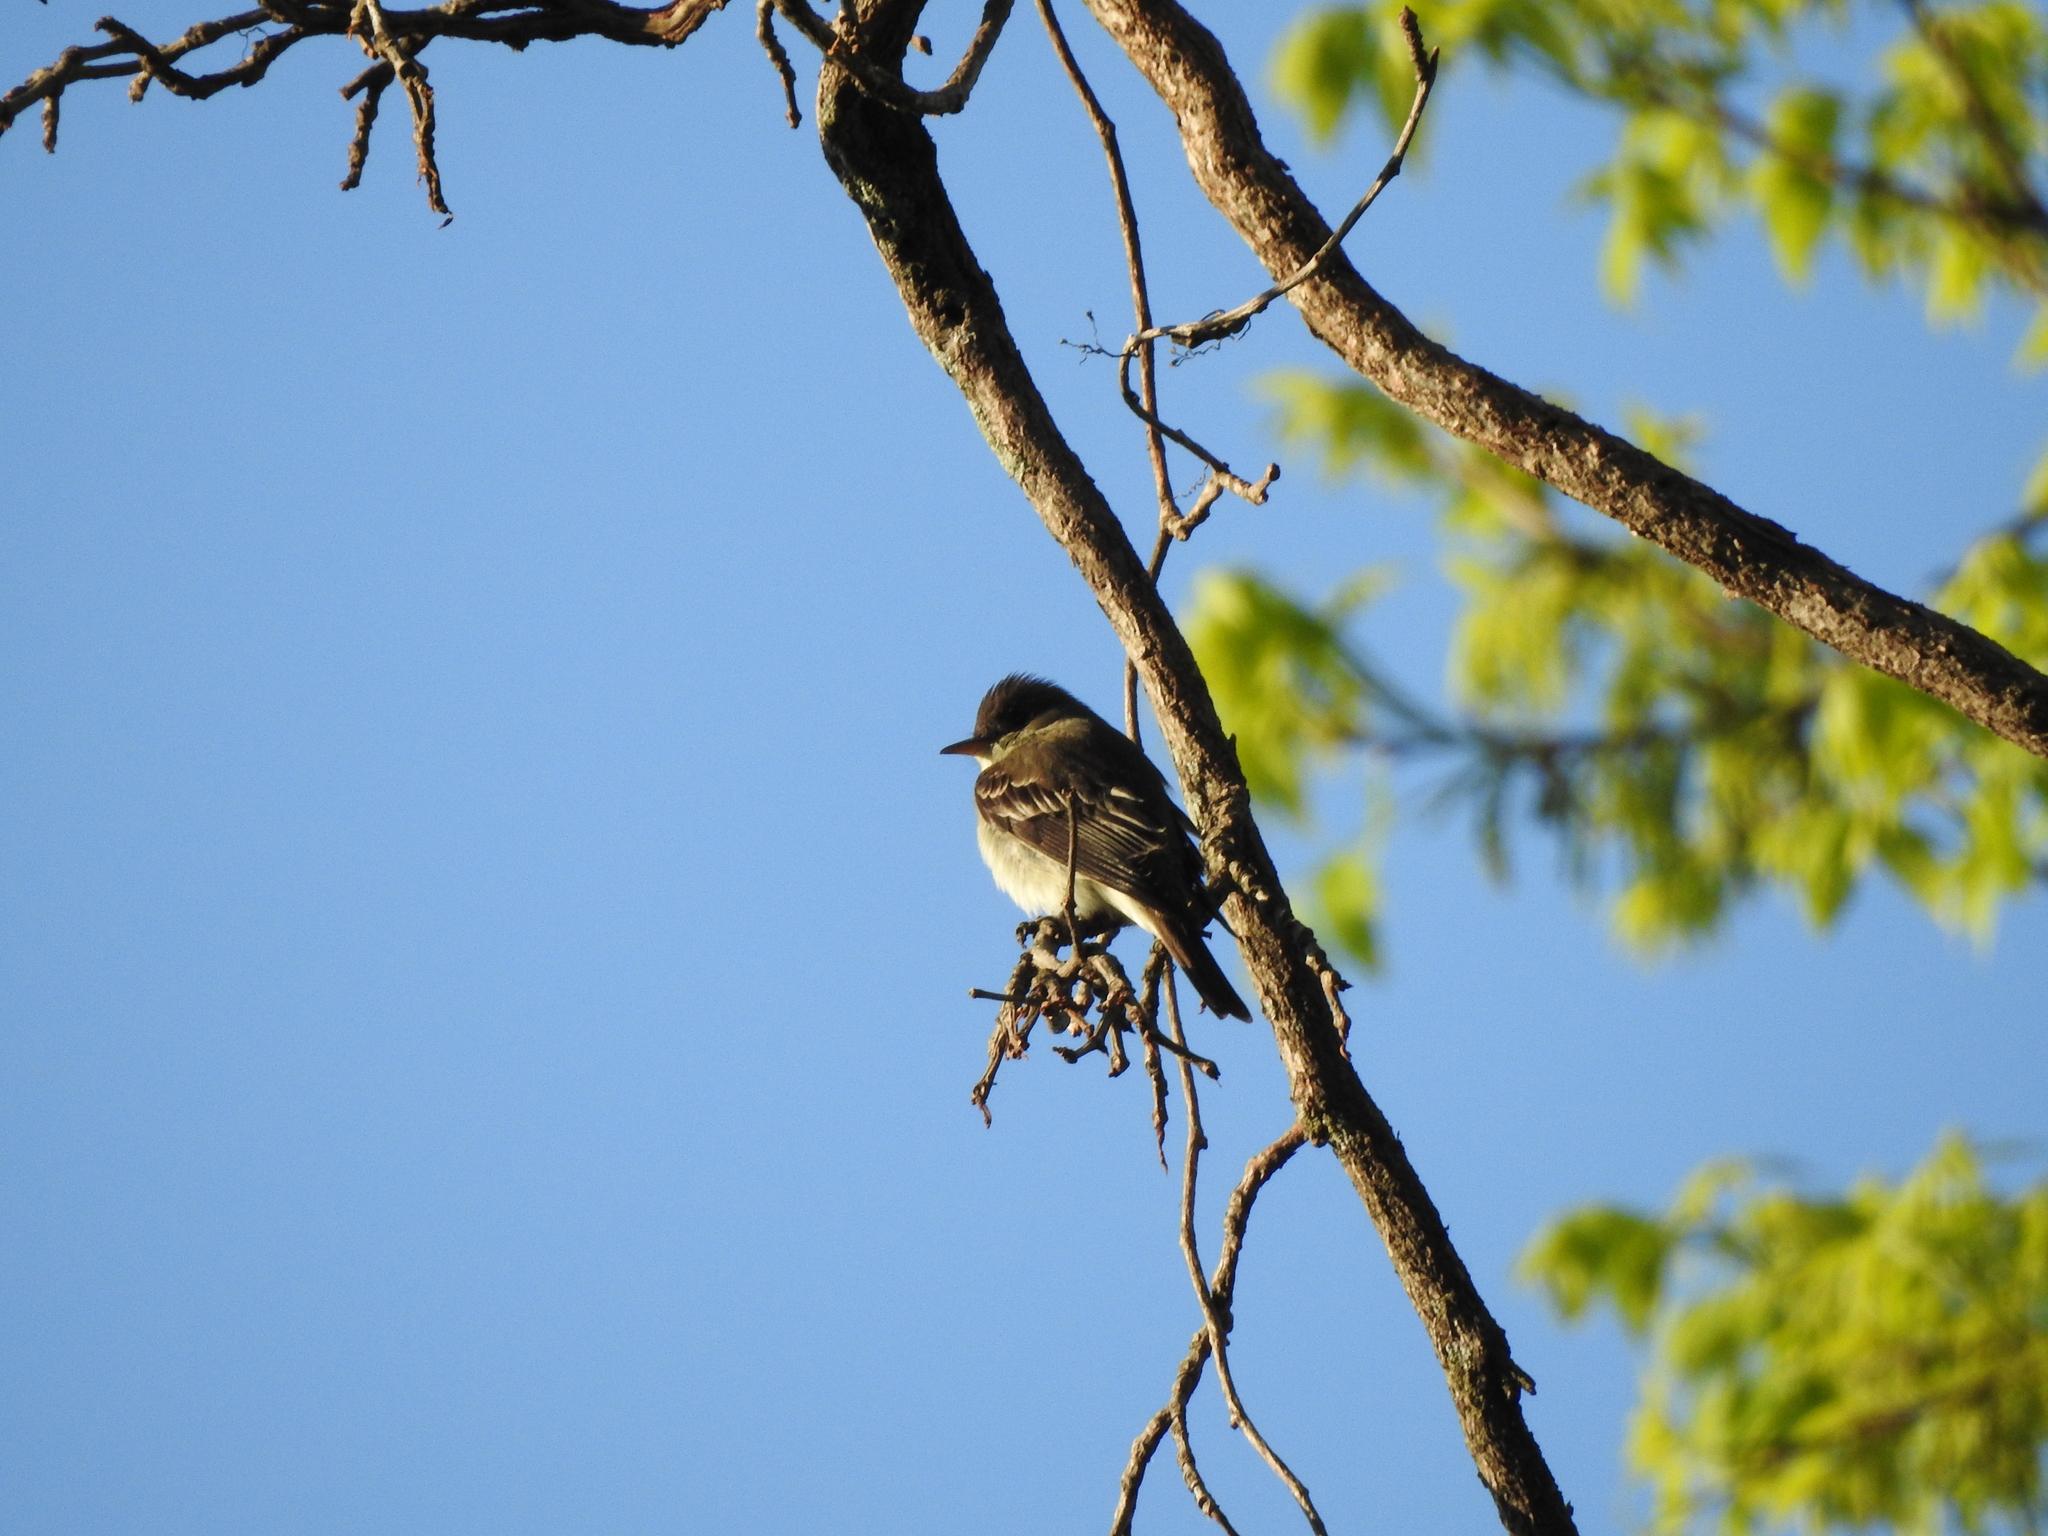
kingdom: Animalia
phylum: Chordata
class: Aves
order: Passeriformes
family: Tyrannidae
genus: Contopus
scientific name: Contopus virens
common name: Eastern wood-pewee
